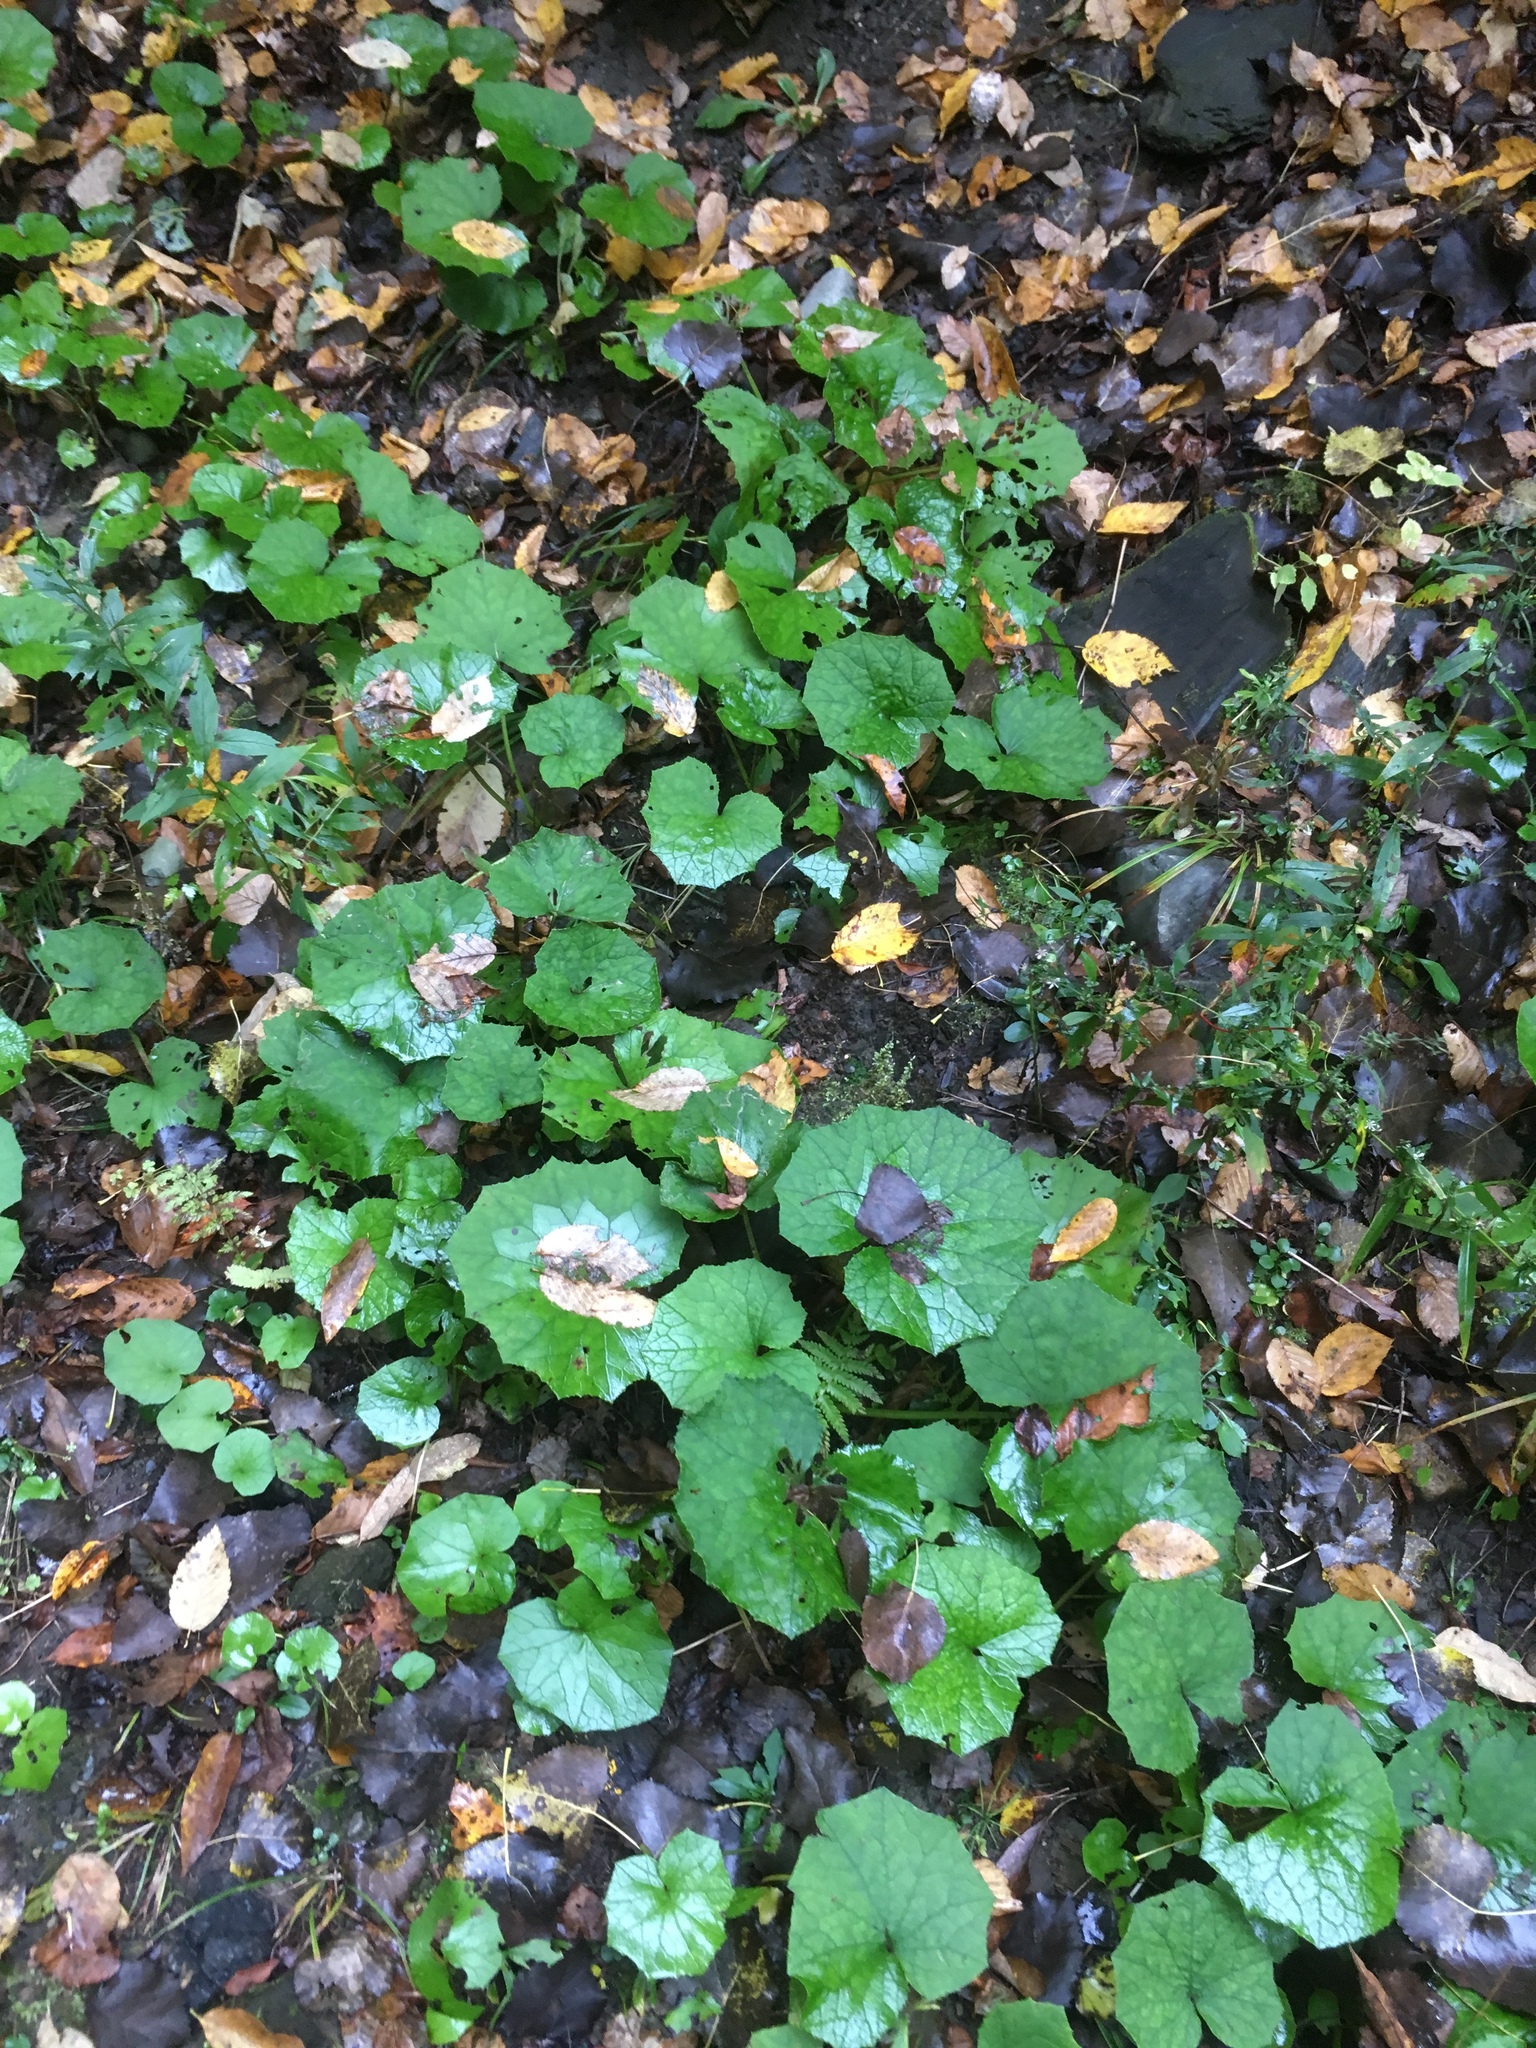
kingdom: Plantae
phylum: Tracheophyta
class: Magnoliopsida
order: Asterales
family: Asteraceae
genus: Tussilago
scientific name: Tussilago farfara
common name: Coltsfoot
